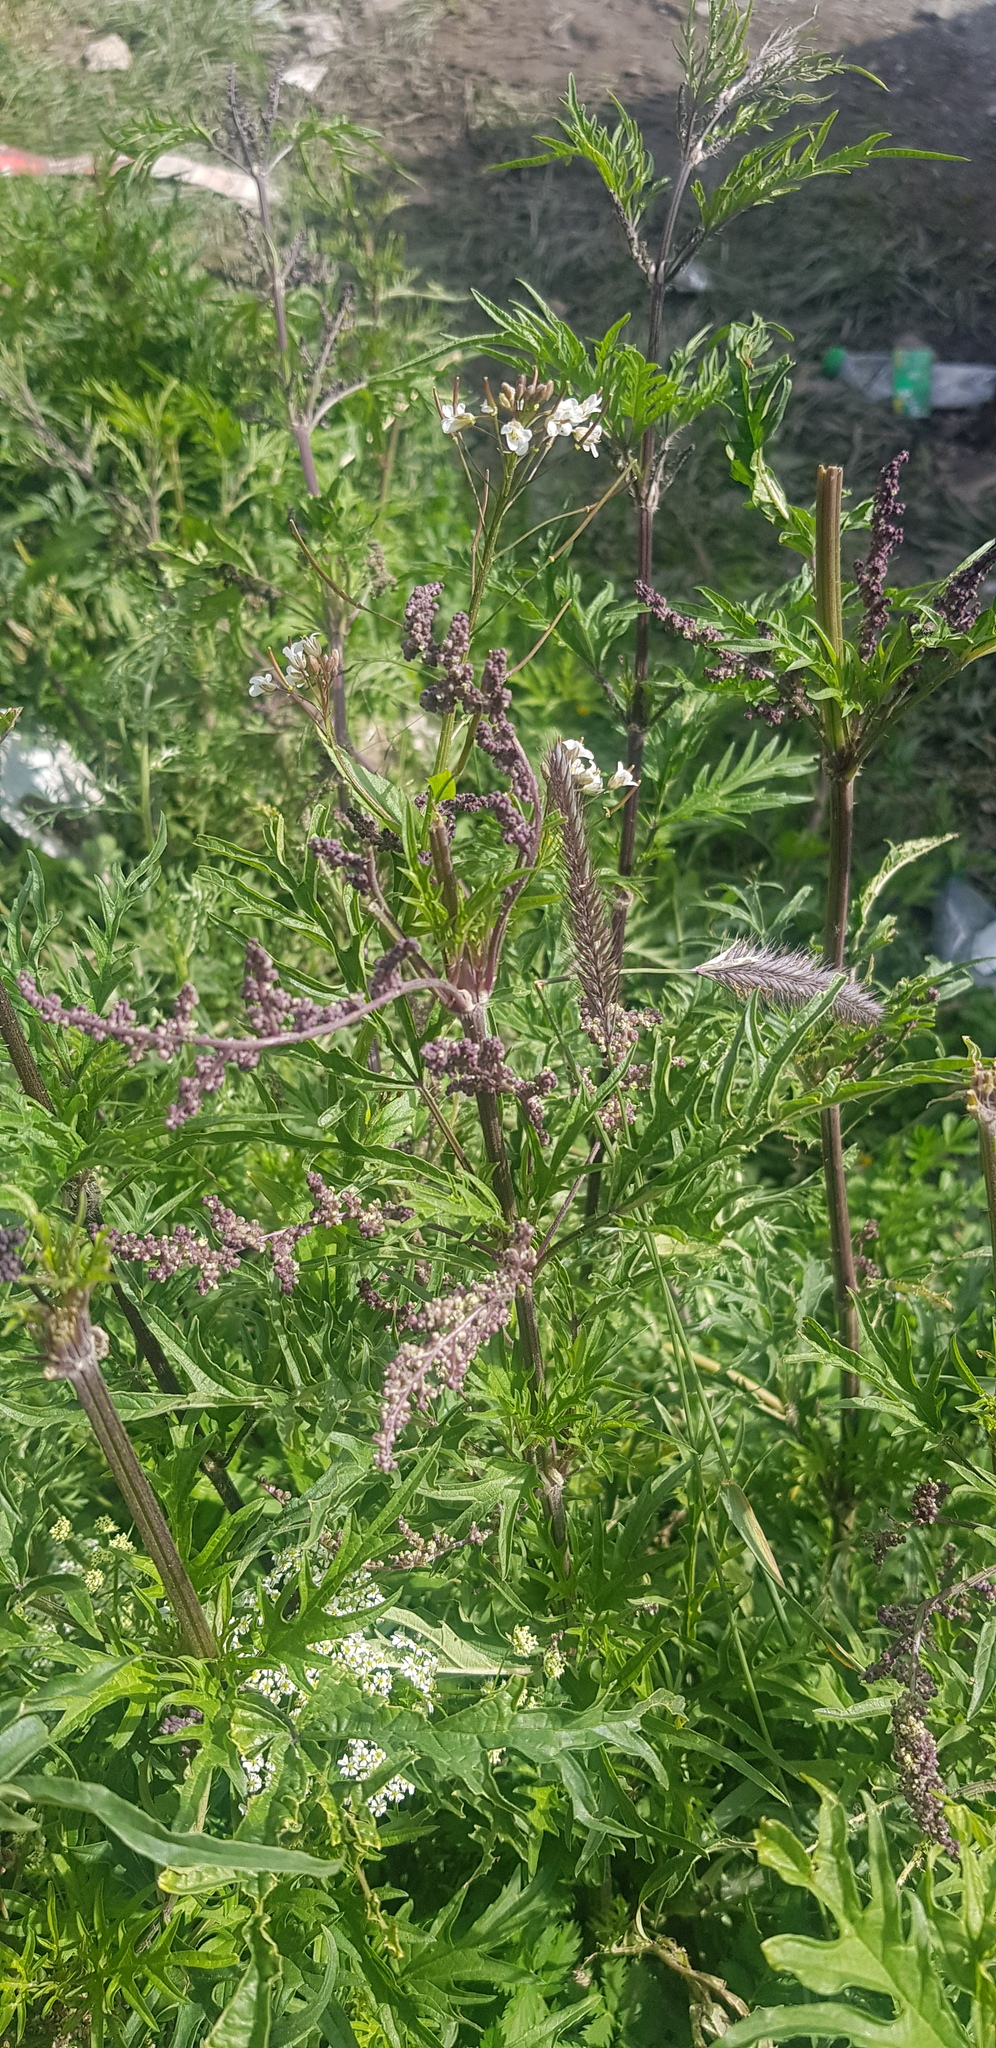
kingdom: Plantae
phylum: Tracheophyta
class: Magnoliopsida
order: Rosales
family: Urticaceae
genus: Urtica
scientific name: Urtica cannabina
